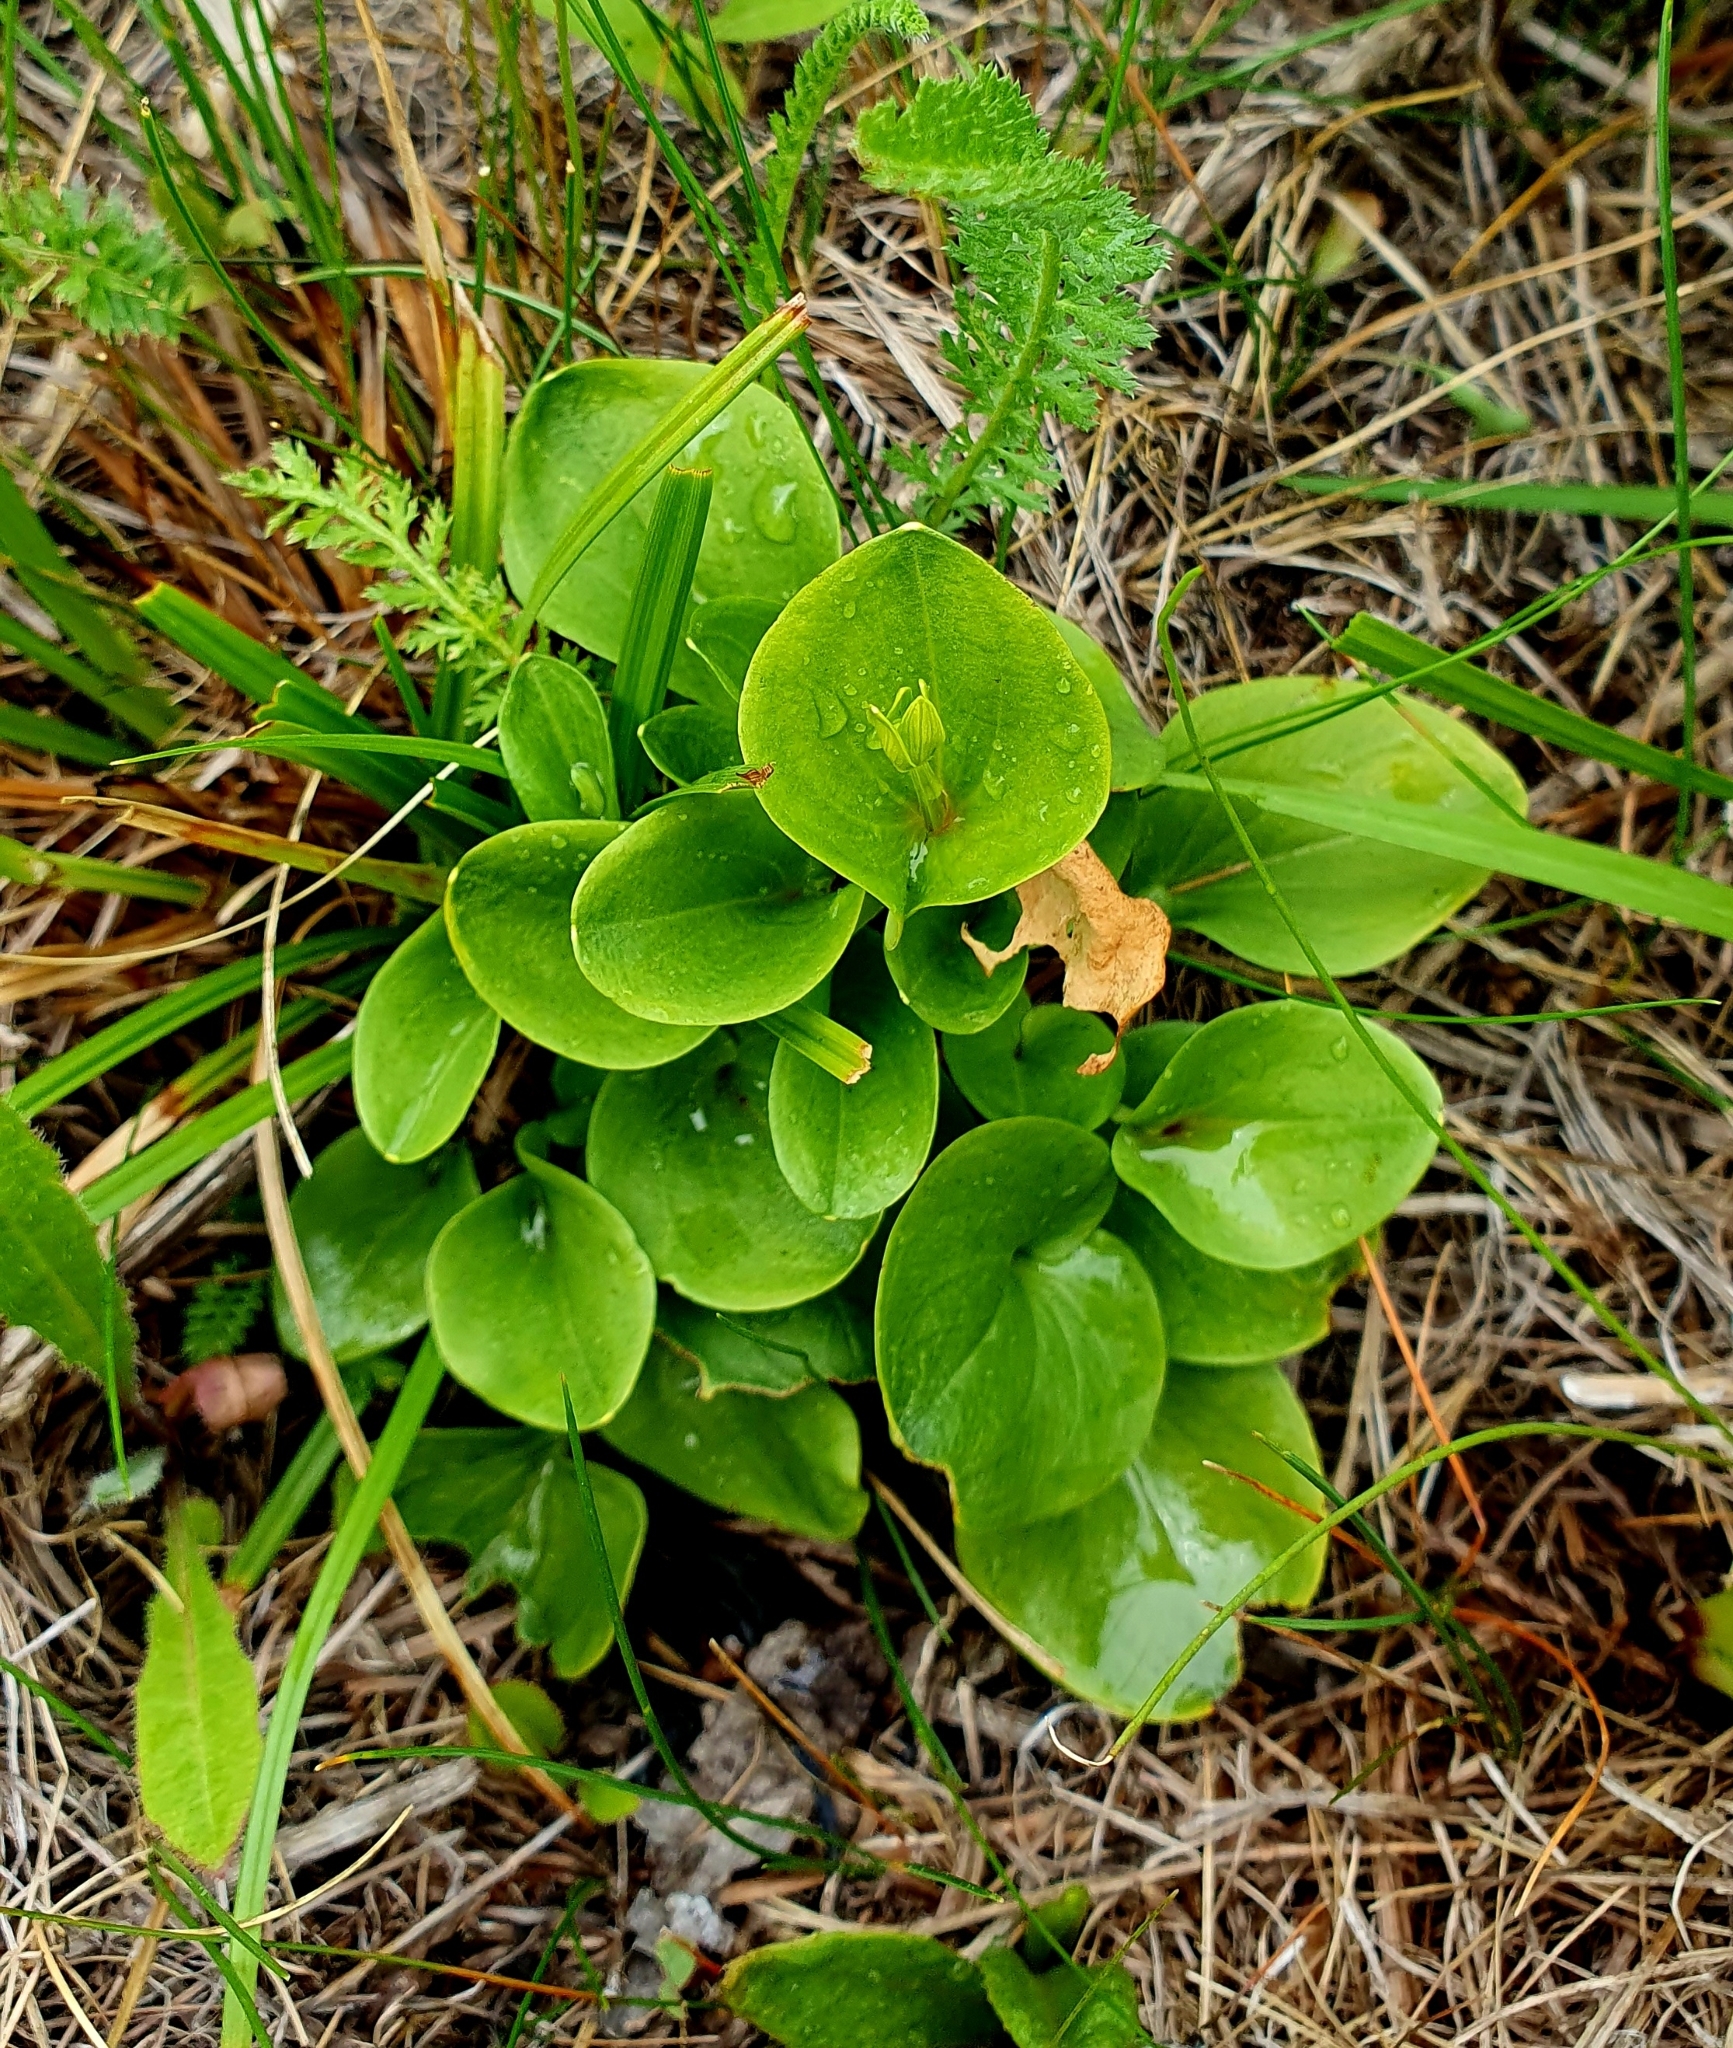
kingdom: Plantae
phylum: Tracheophyta
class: Magnoliopsida
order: Celastrales
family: Parnassiaceae
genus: Parnassia
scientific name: Parnassia palustris
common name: Grass-of-parnassus
